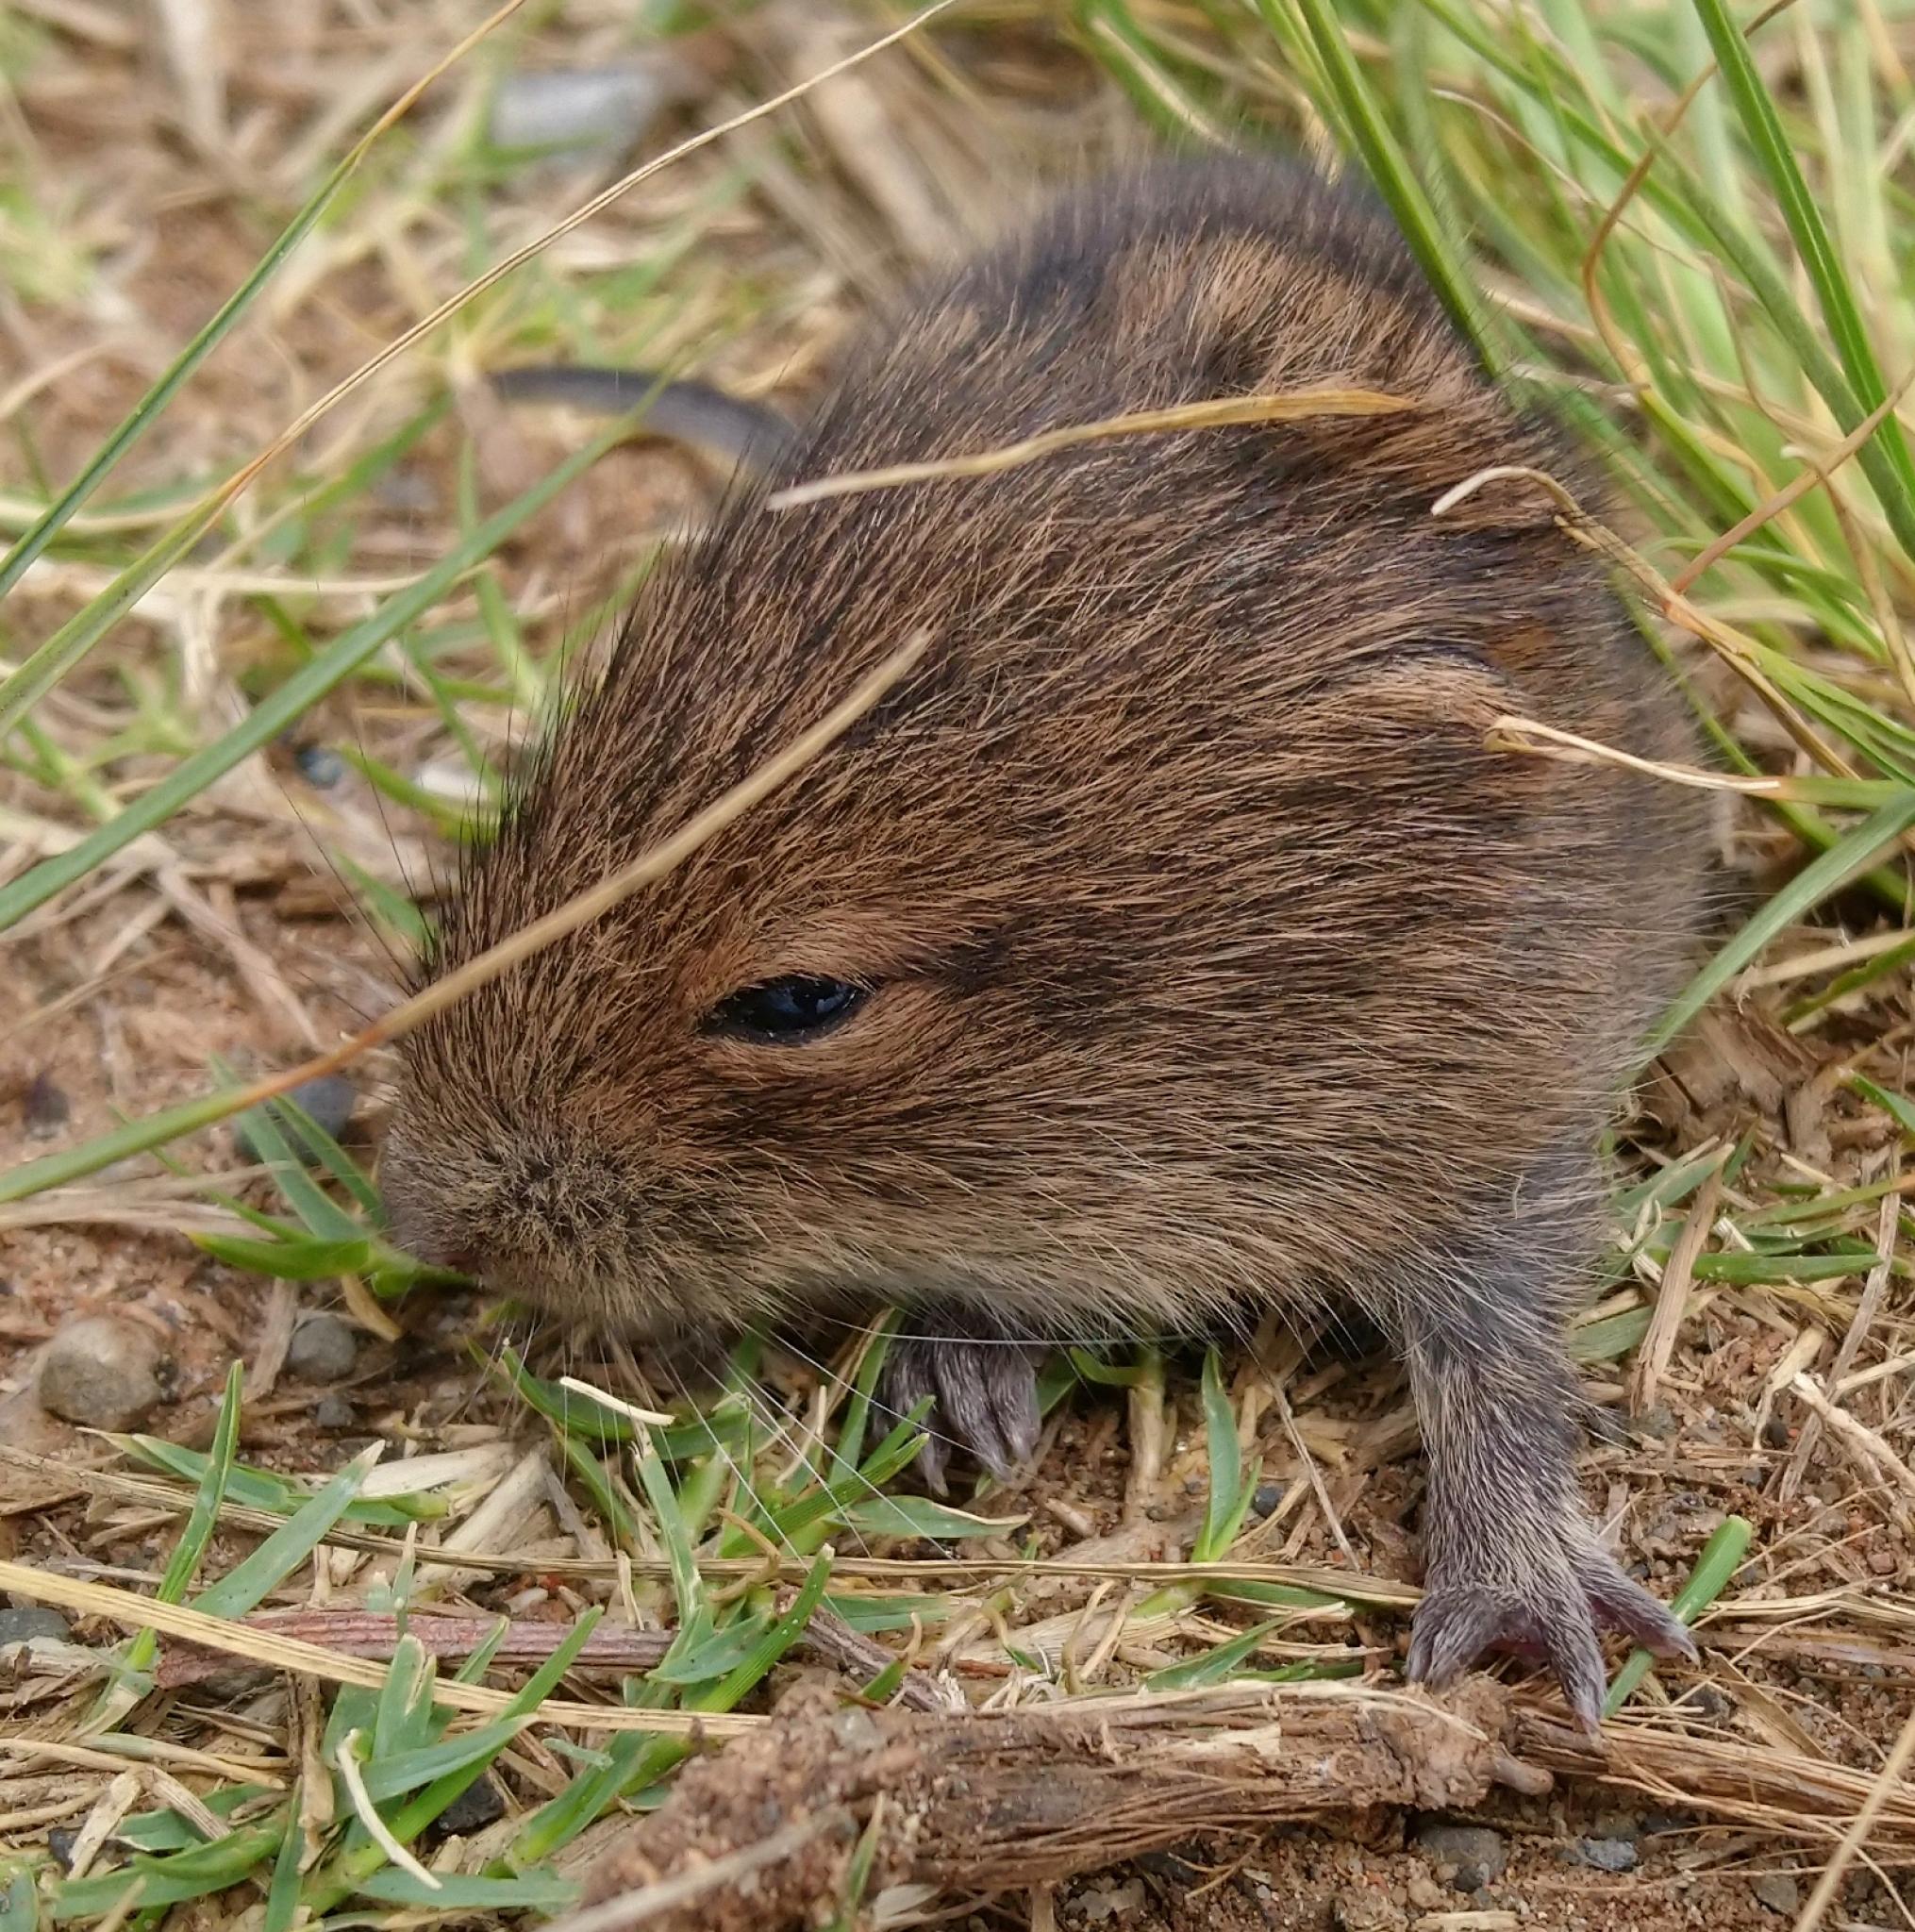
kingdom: Animalia
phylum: Chordata
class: Mammalia
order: Rodentia
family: Muridae
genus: Otomys
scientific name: Otomys irroratus
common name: Southern african vlei rat
